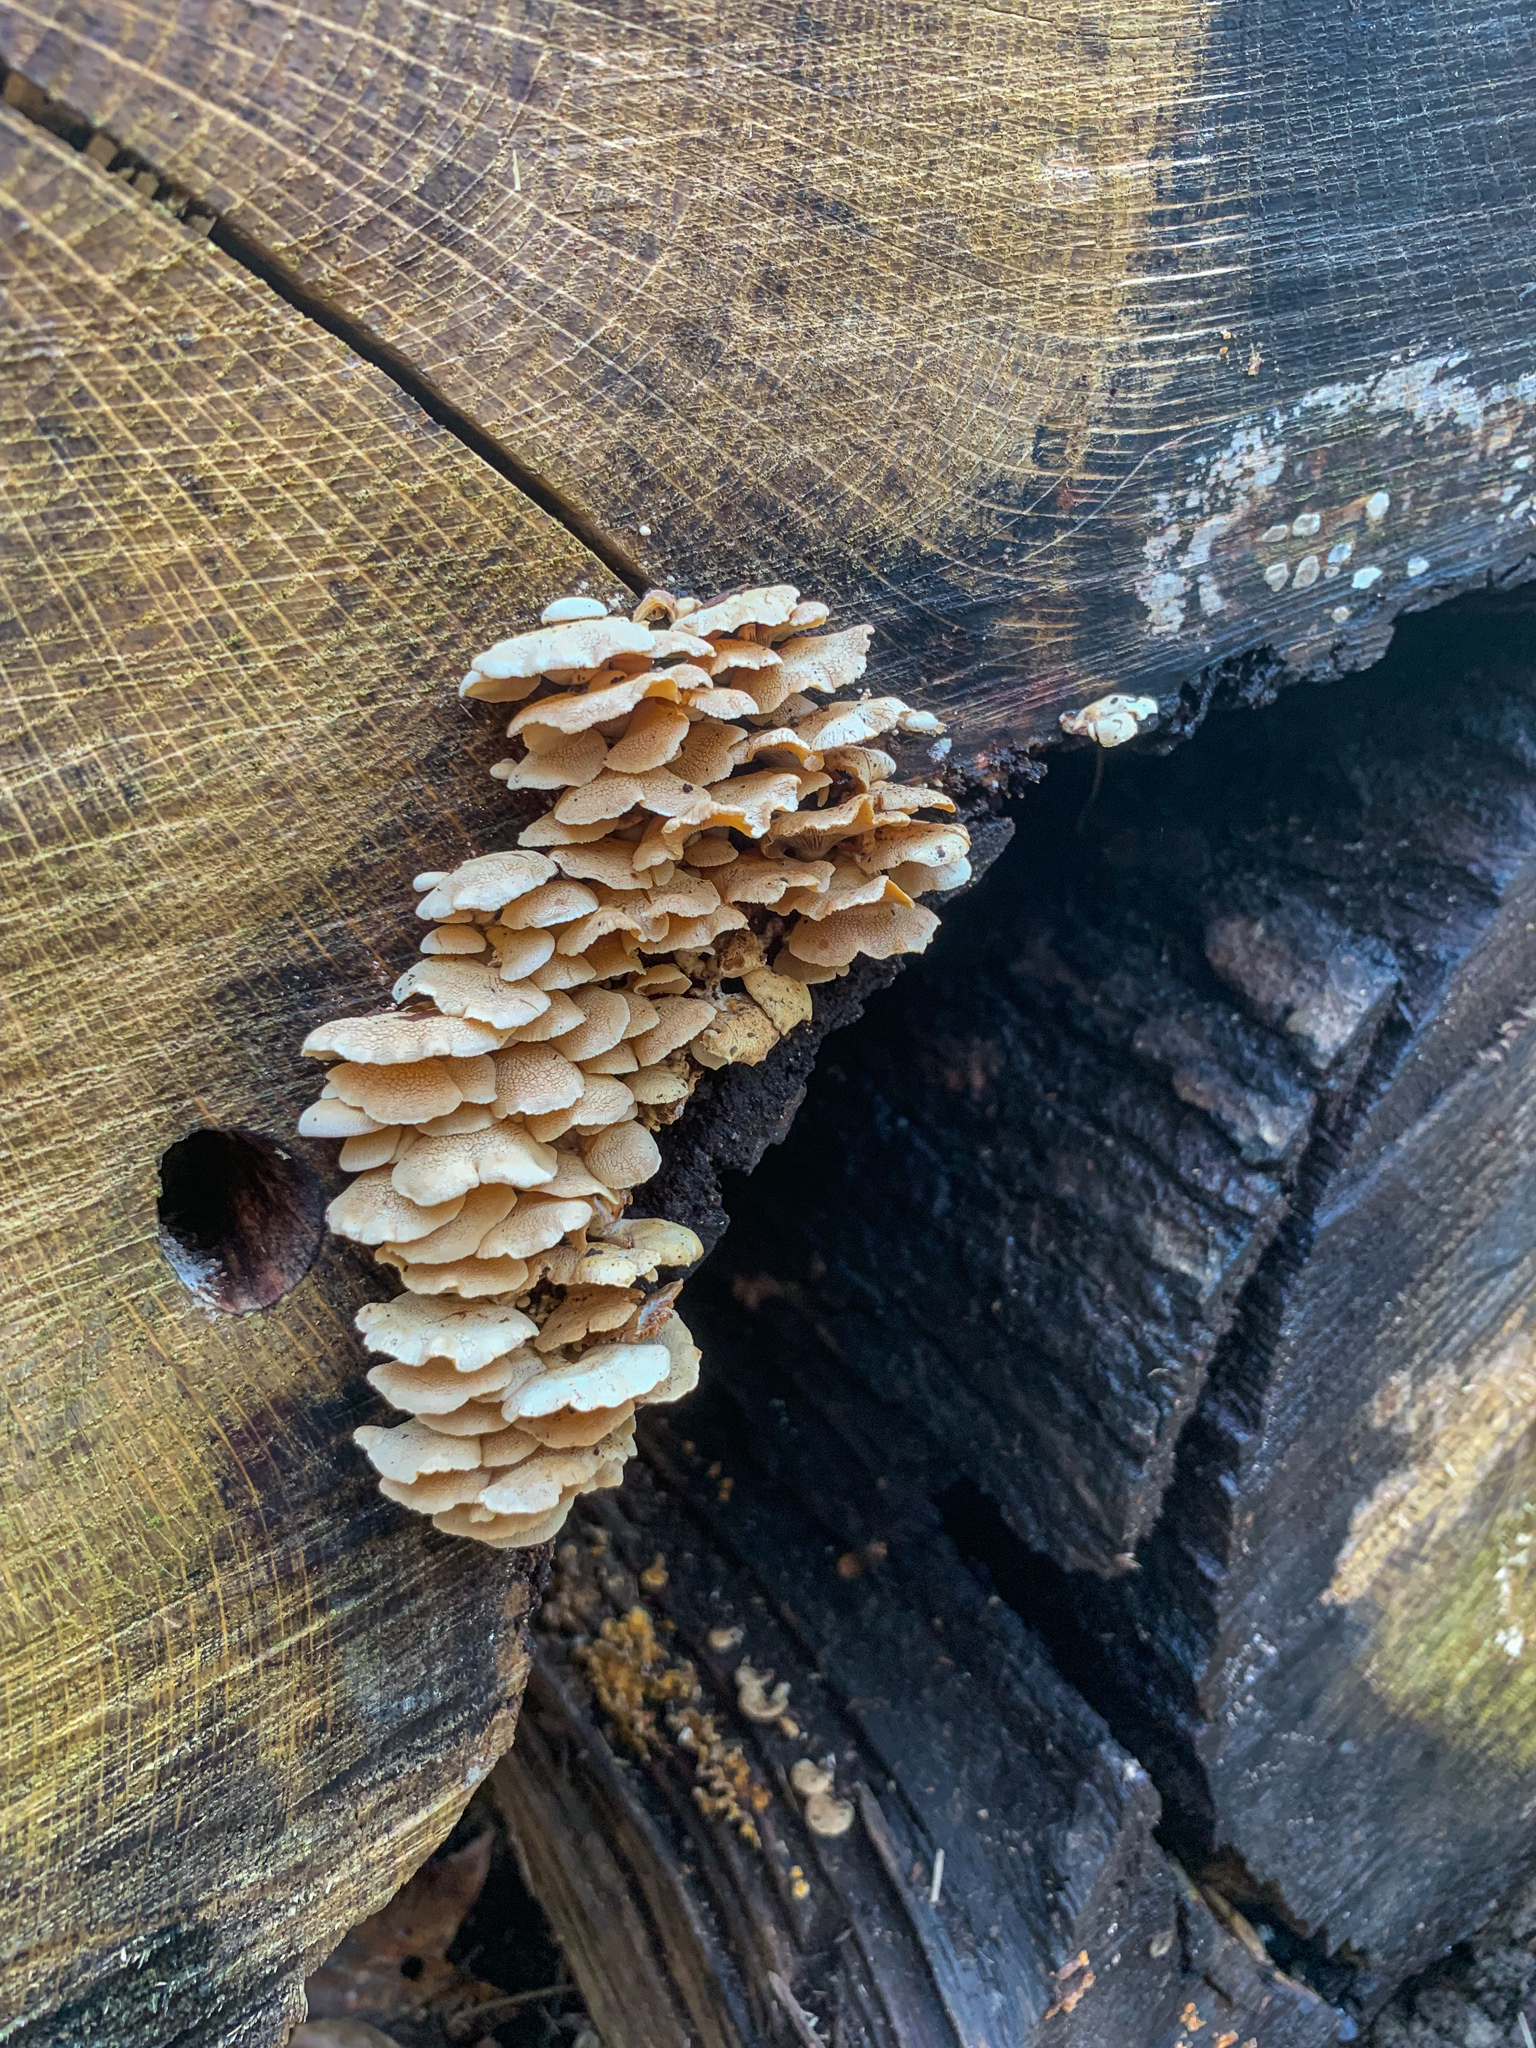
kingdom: Fungi
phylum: Basidiomycota
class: Agaricomycetes
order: Agaricales
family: Mycenaceae
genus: Panellus
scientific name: Panellus stipticus
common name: Bitter oysterling
